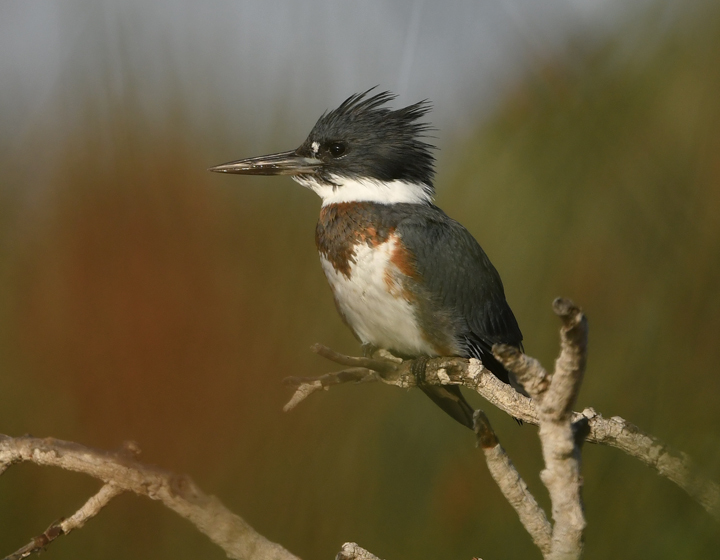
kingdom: Animalia
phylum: Chordata
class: Aves
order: Coraciiformes
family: Alcedinidae
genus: Megaceryle
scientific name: Megaceryle alcyon
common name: Belted kingfisher
